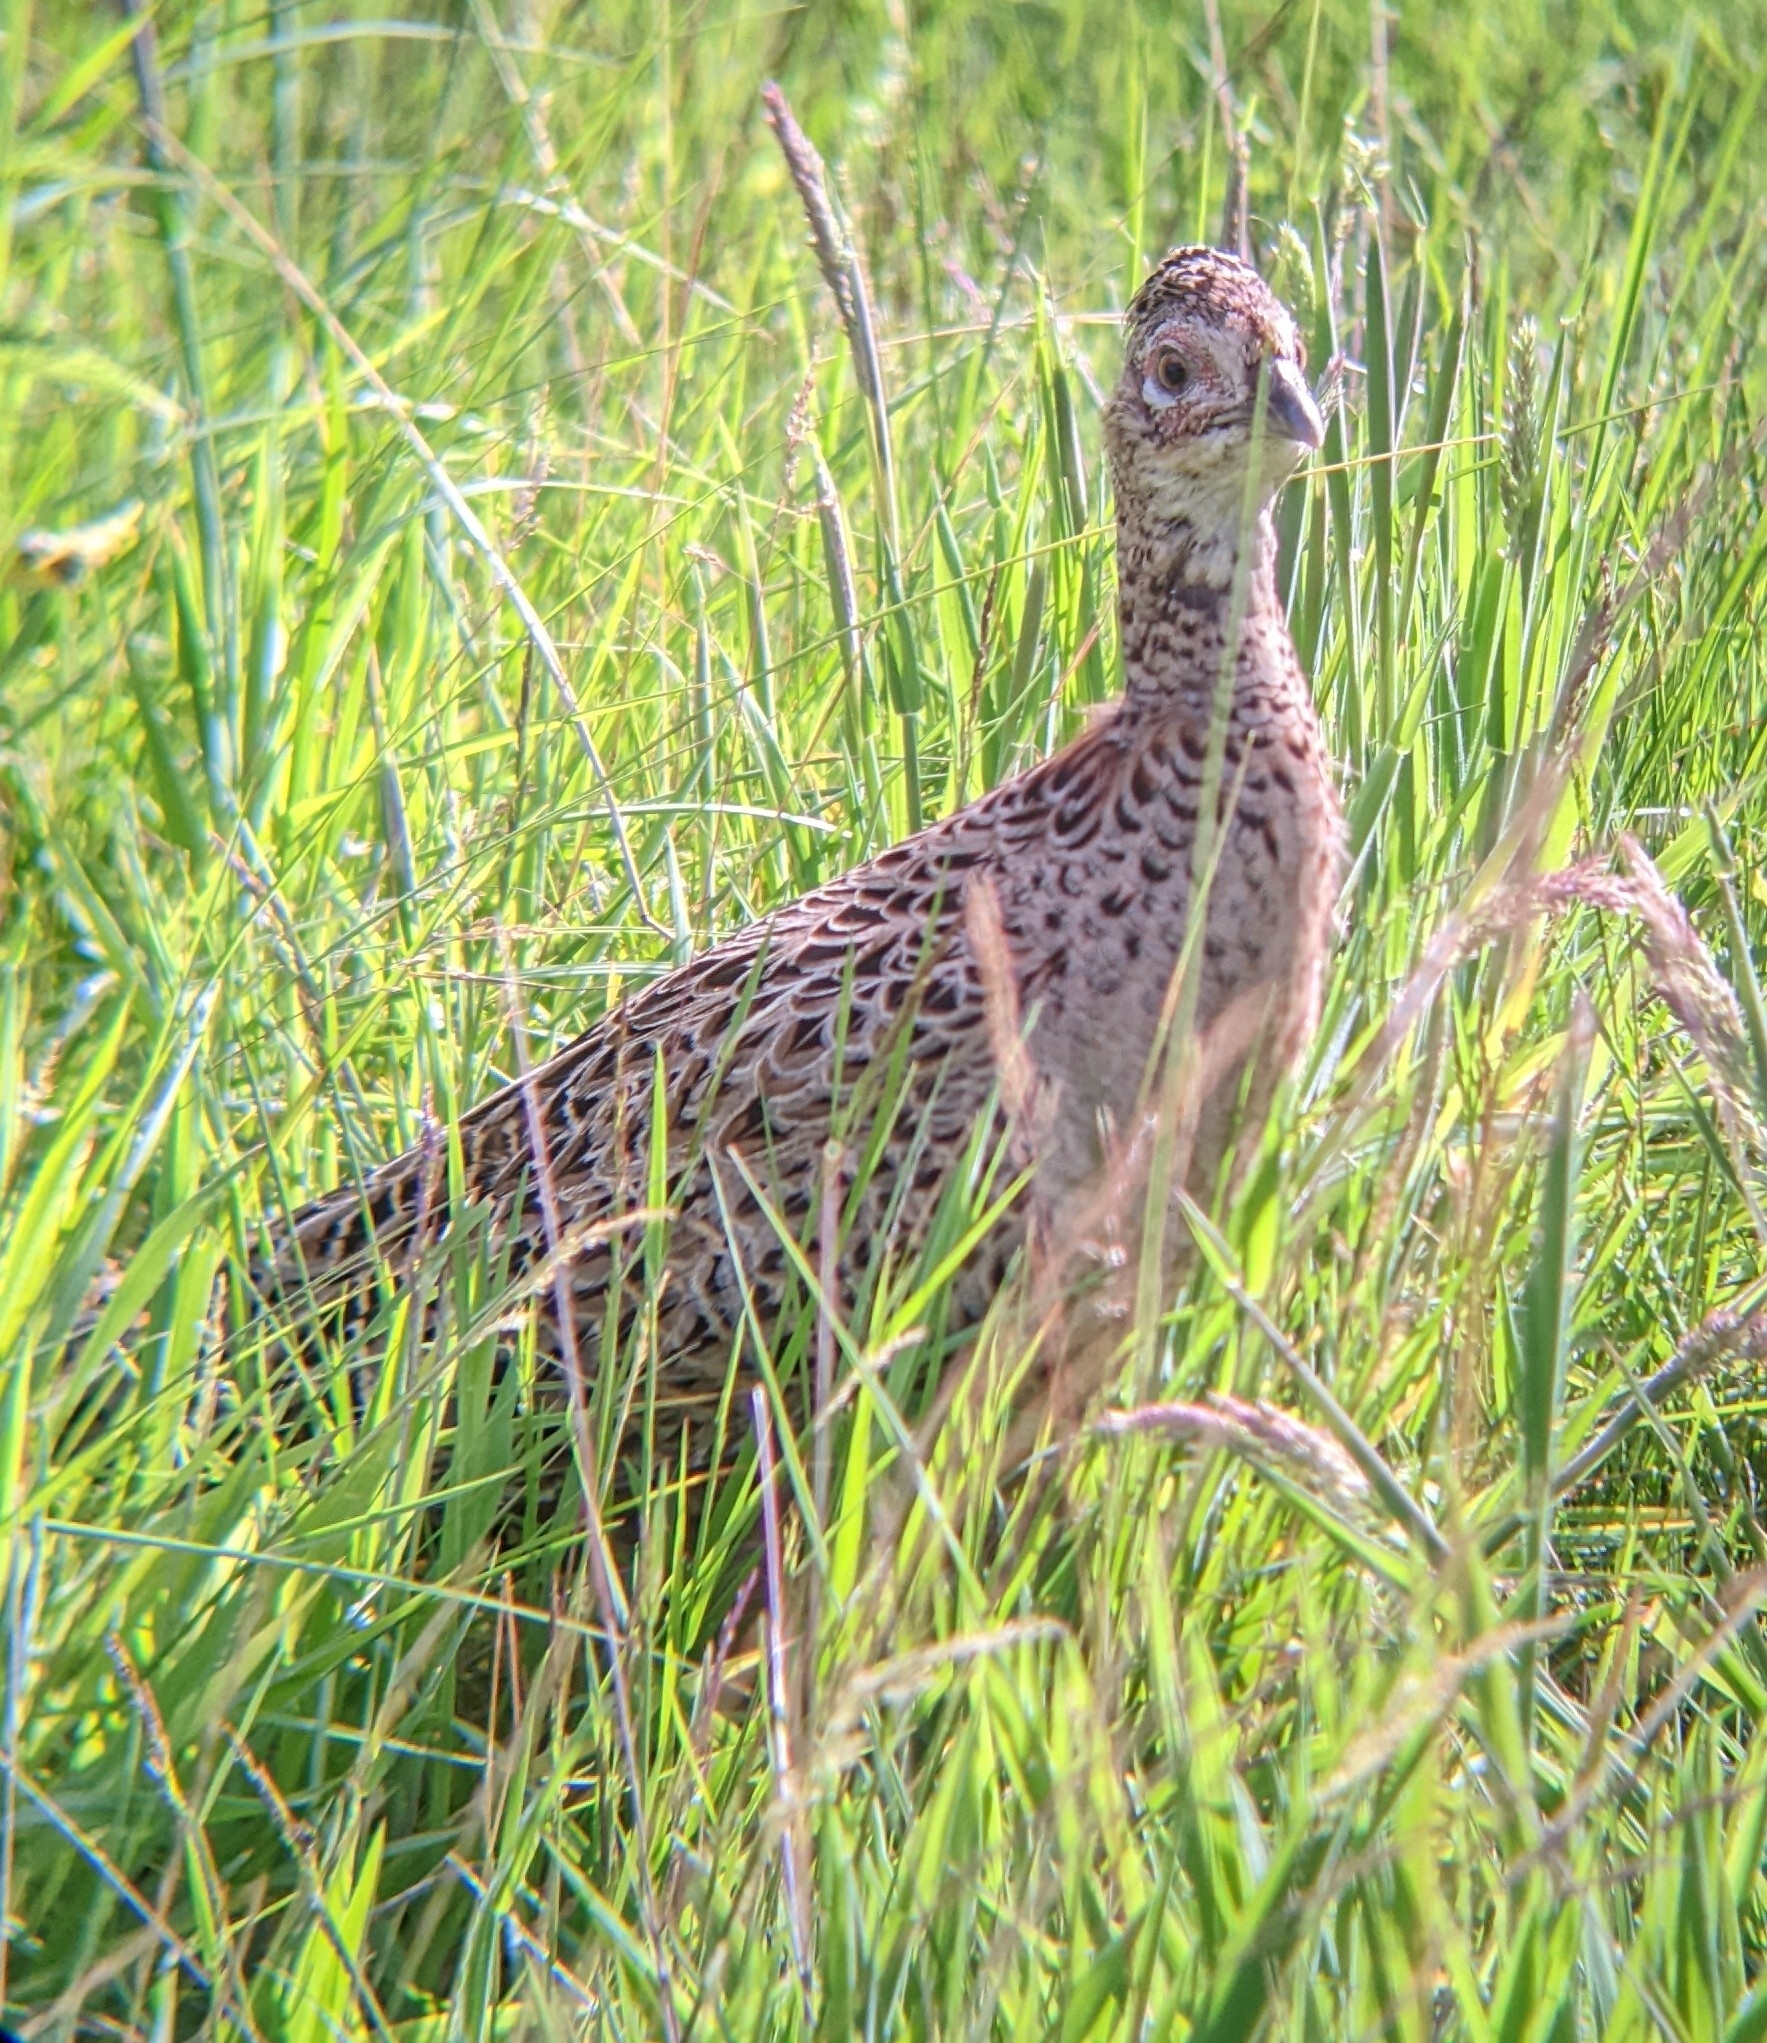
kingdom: Animalia
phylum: Chordata
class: Aves
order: Galliformes
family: Phasianidae
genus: Phasianus
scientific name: Phasianus colchicus
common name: Common pheasant
